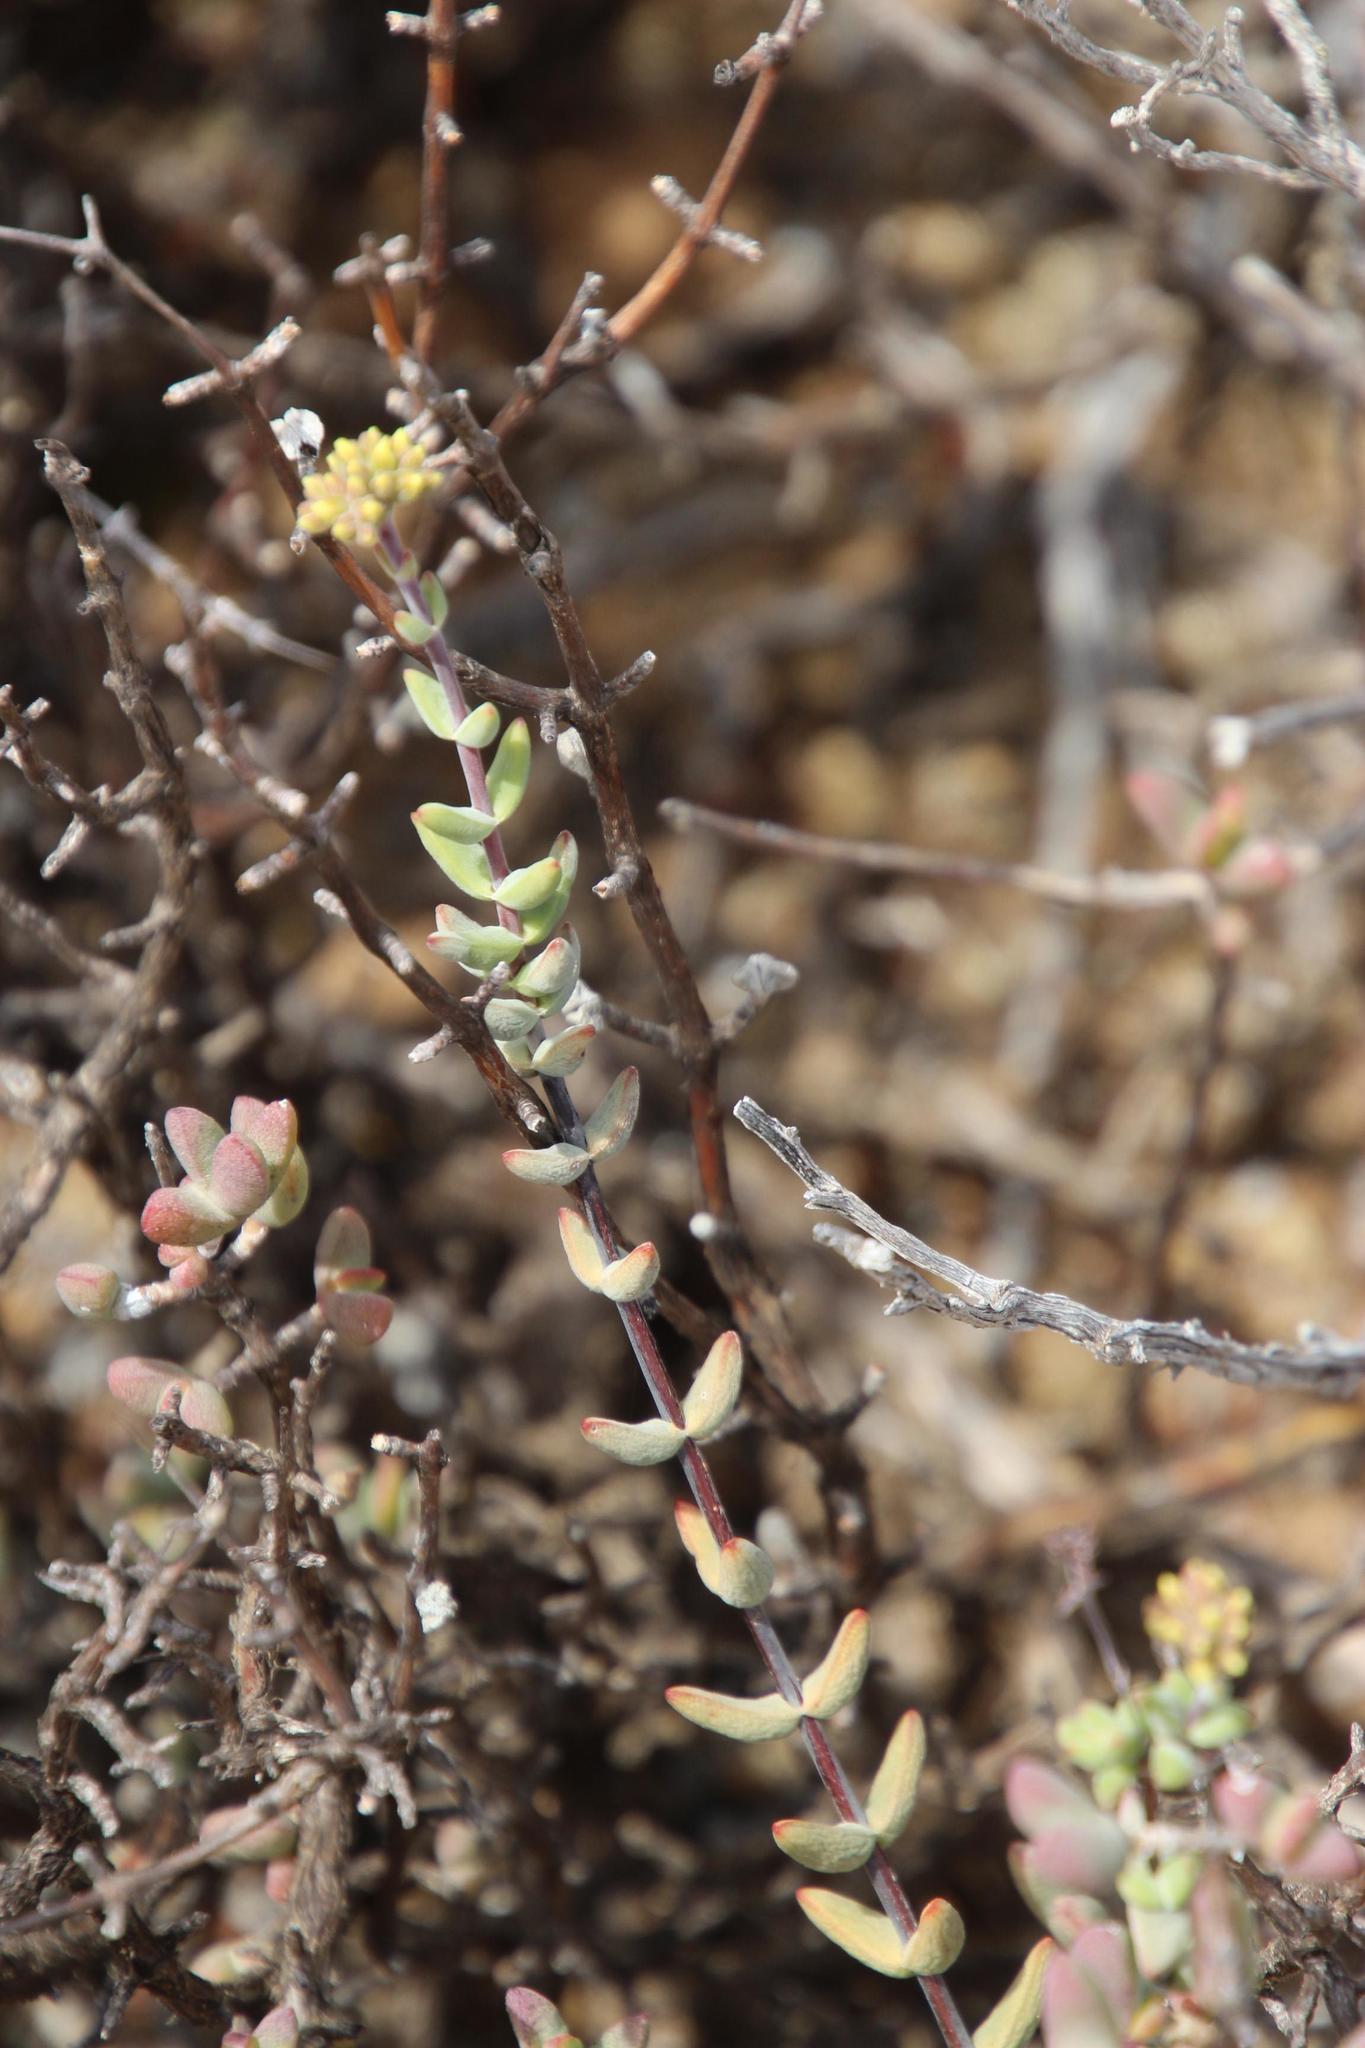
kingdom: Plantae
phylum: Tracheophyta
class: Magnoliopsida
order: Saxifragales
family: Crassulaceae
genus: Crassula
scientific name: Crassula subaphylla
